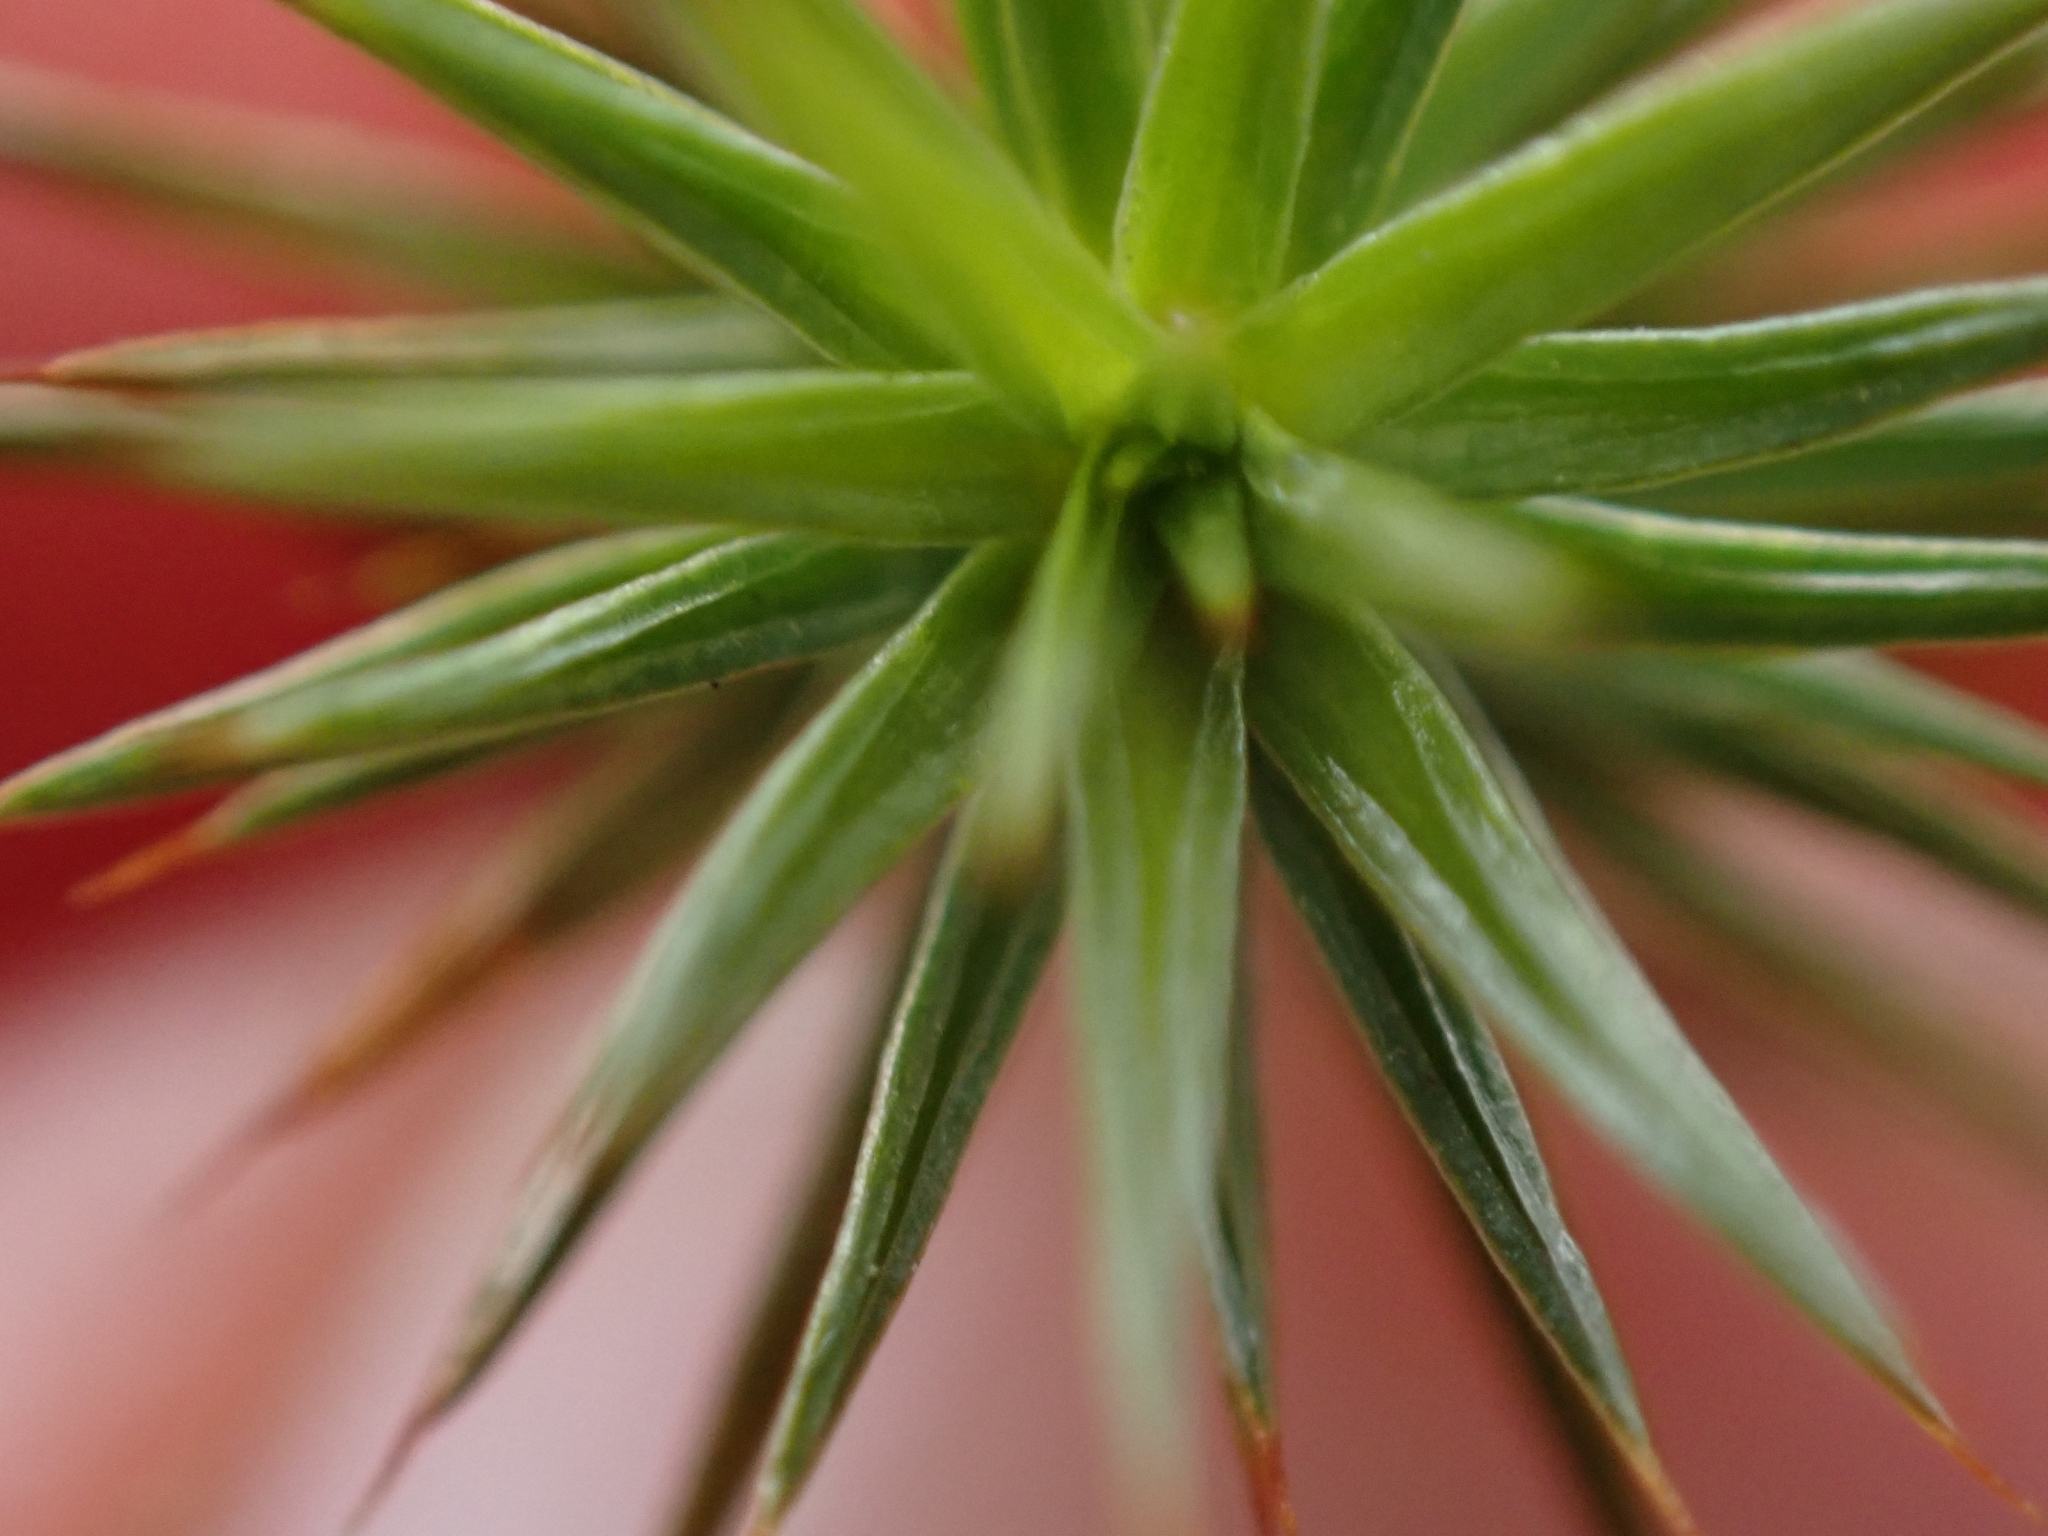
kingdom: Plantae
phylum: Bryophyta
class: Polytrichopsida
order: Polytrichales
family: Polytrichaceae
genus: Polytrichum
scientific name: Polytrichum juniperinum
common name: Juniper haircap moss
